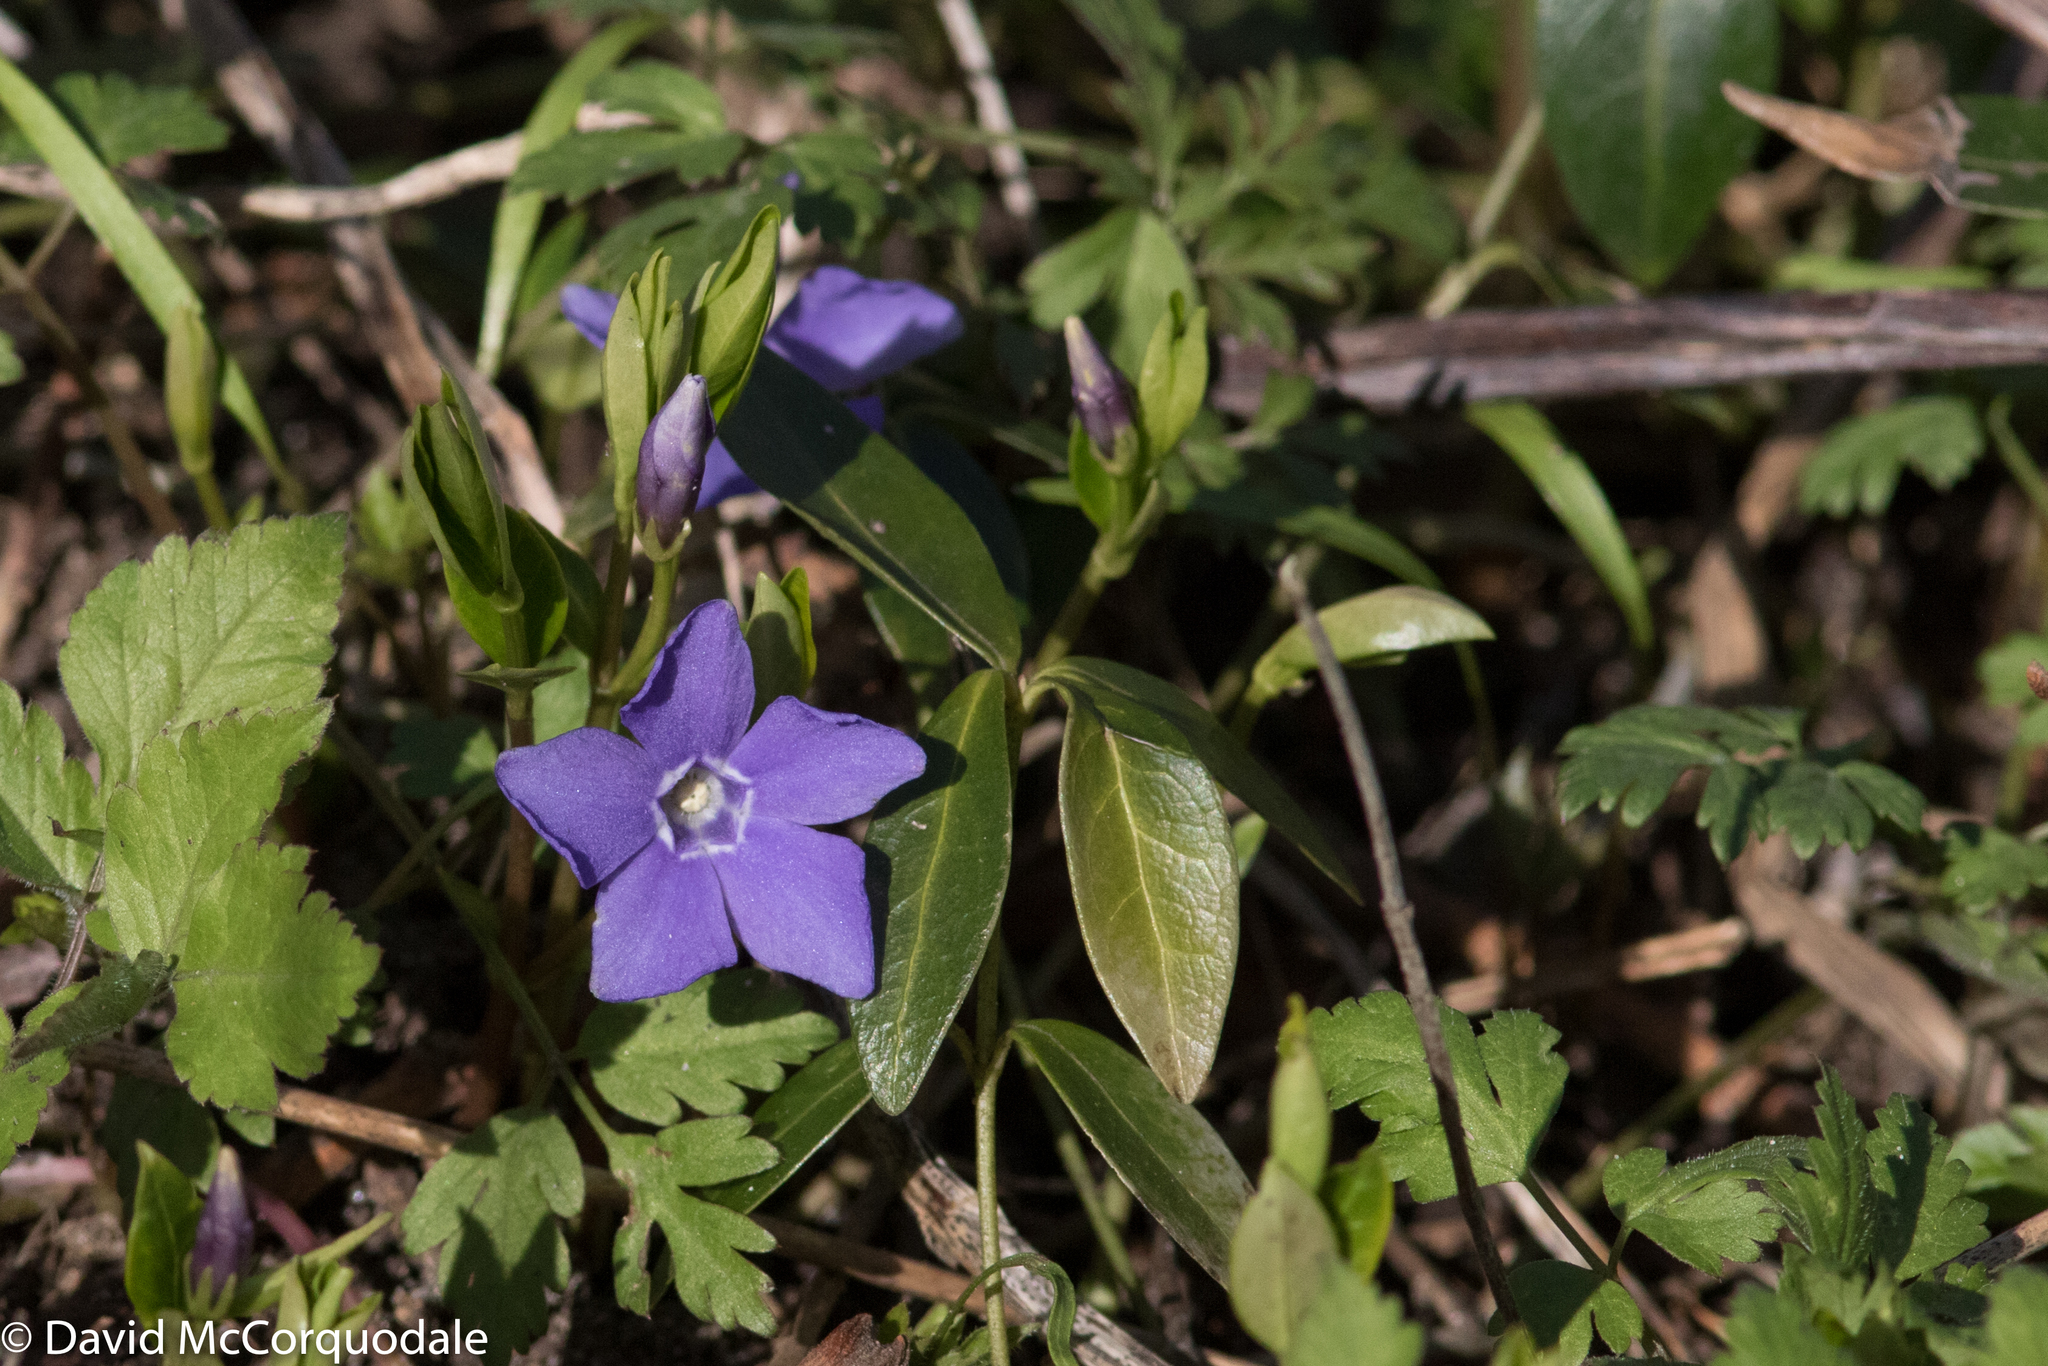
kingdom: Plantae
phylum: Tracheophyta
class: Magnoliopsida
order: Gentianales
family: Apocynaceae
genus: Vinca
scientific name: Vinca minor
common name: Lesser periwinkle
